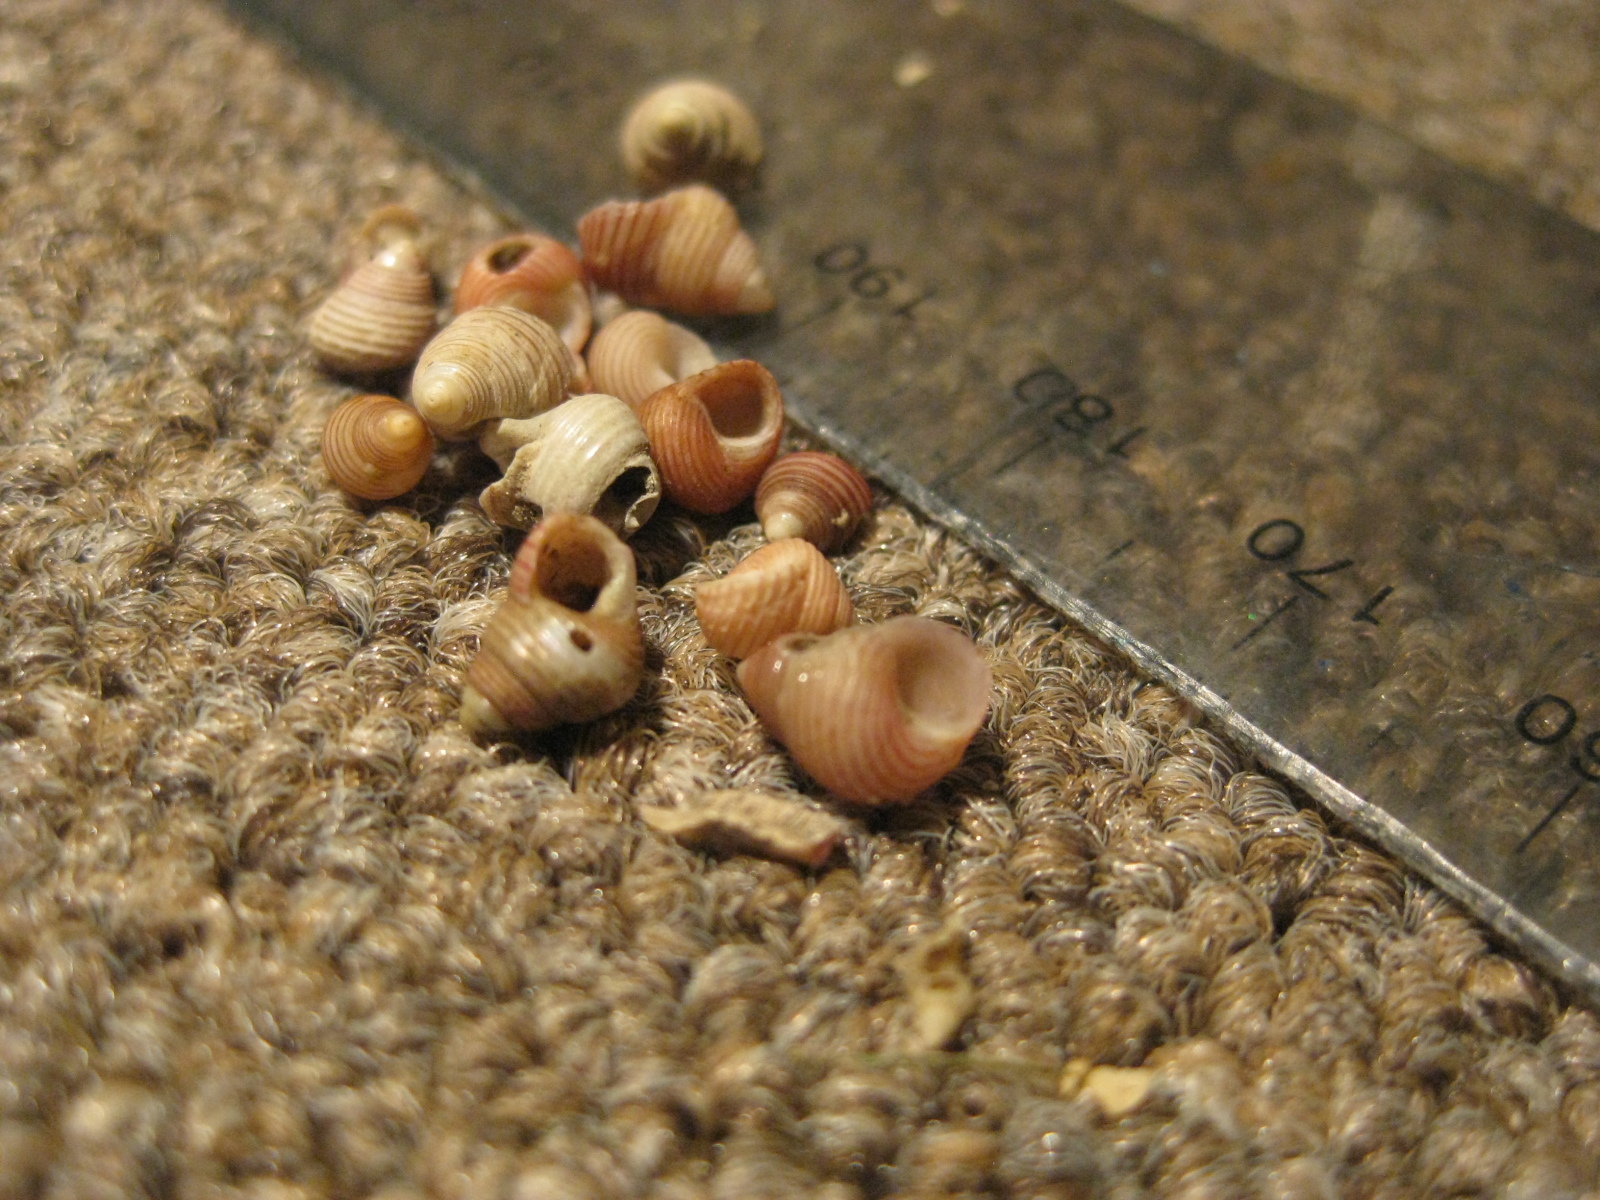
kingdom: Animalia
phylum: Mollusca
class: Gastropoda
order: Trochida
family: Trochidae
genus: Roseaplagis
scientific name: Roseaplagis rufozona
